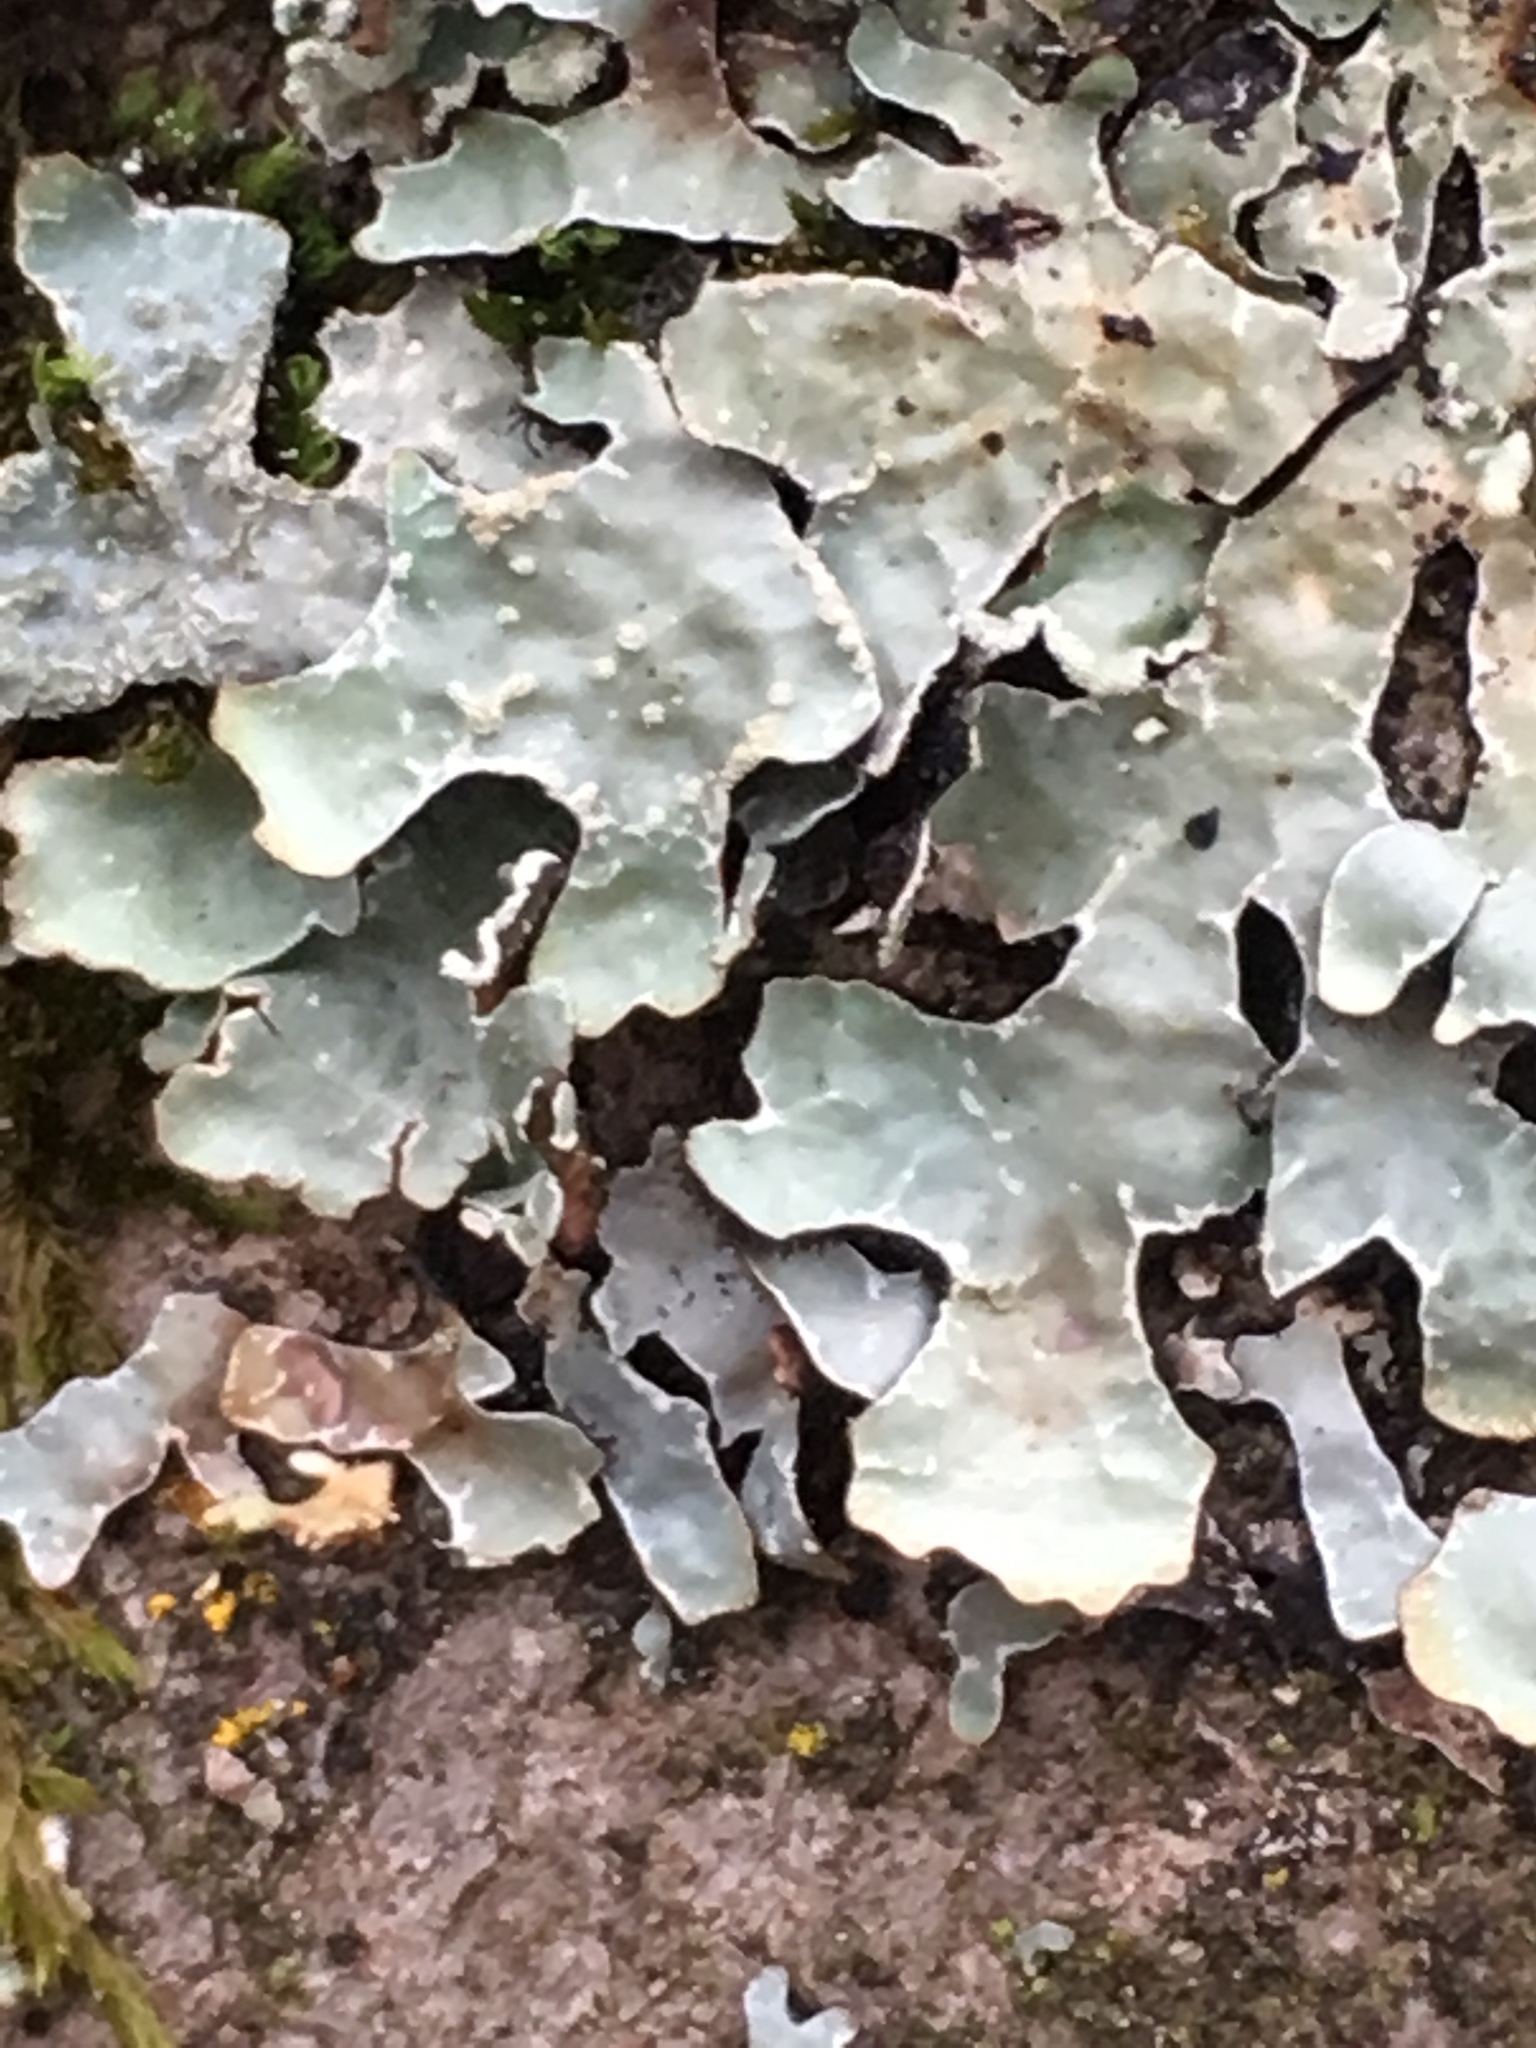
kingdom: Fungi
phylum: Ascomycota
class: Lecanoromycetes
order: Lecanorales
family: Parmeliaceae
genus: Parmelia
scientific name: Parmelia sulcata
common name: Netted shield lichen
